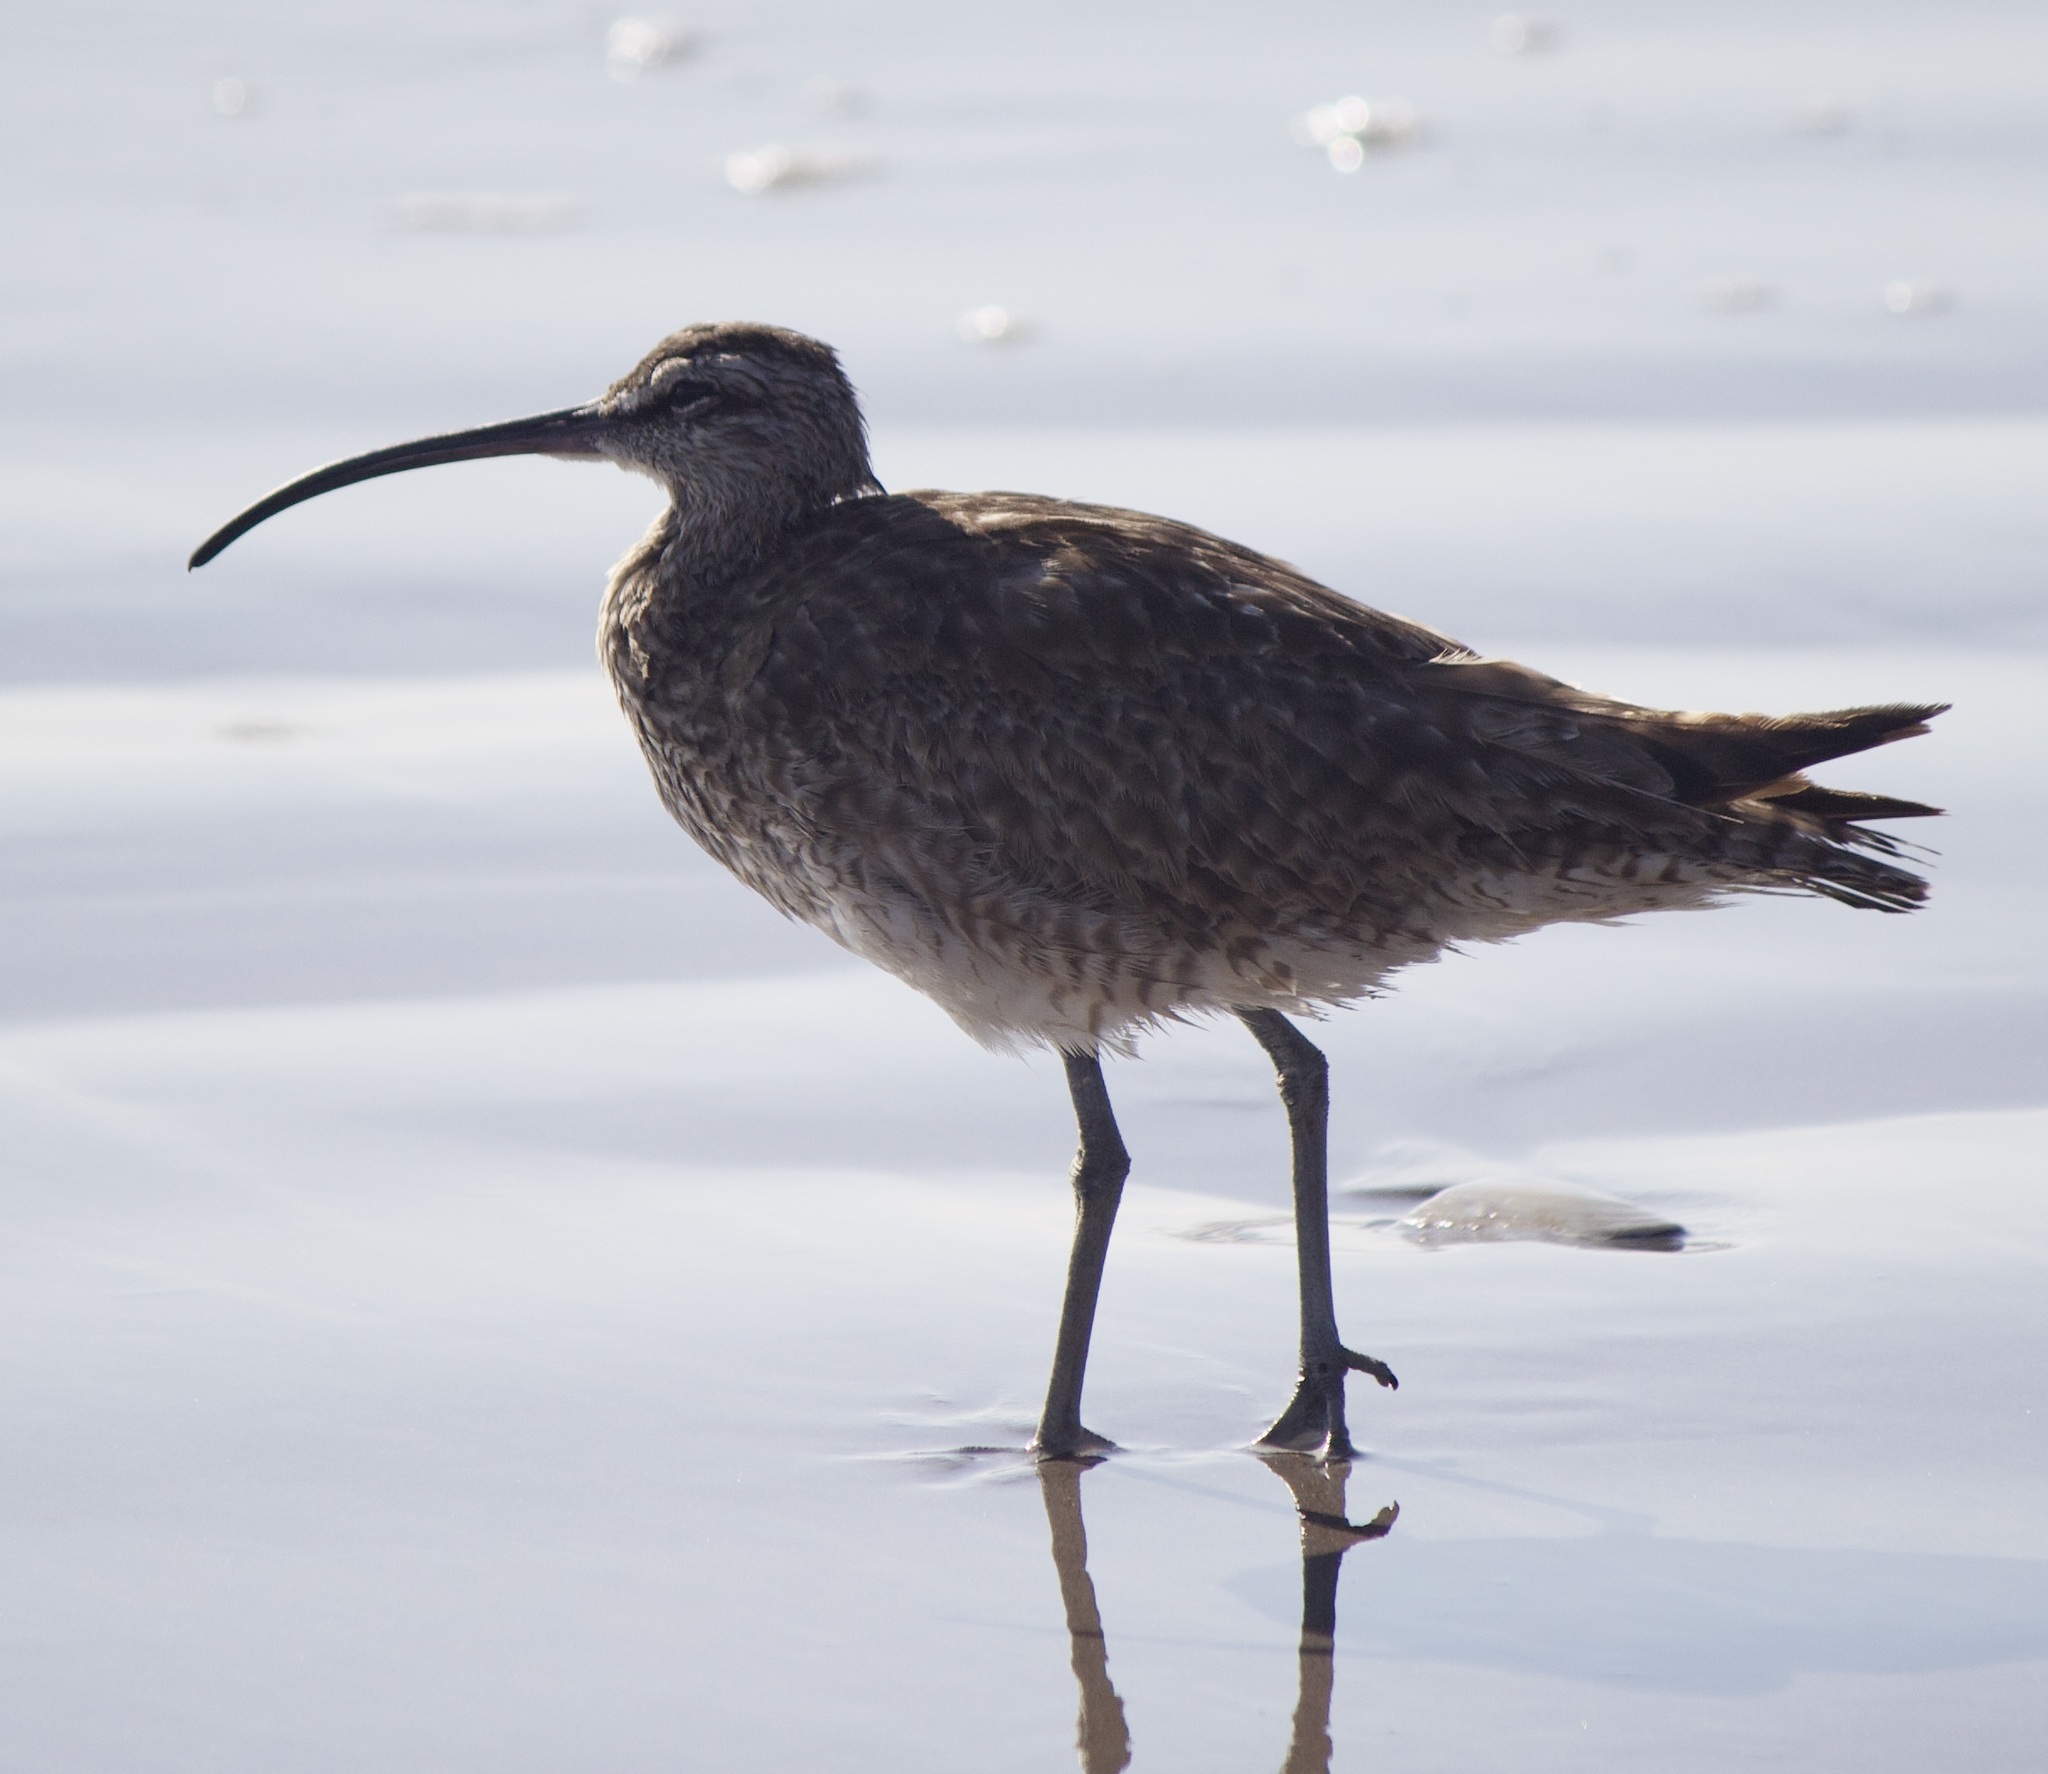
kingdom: Animalia
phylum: Chordata
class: Aves
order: Charadriiformes
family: Scolopacidae
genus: Numenius
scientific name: Numenius phaeopus
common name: Whimbrel
